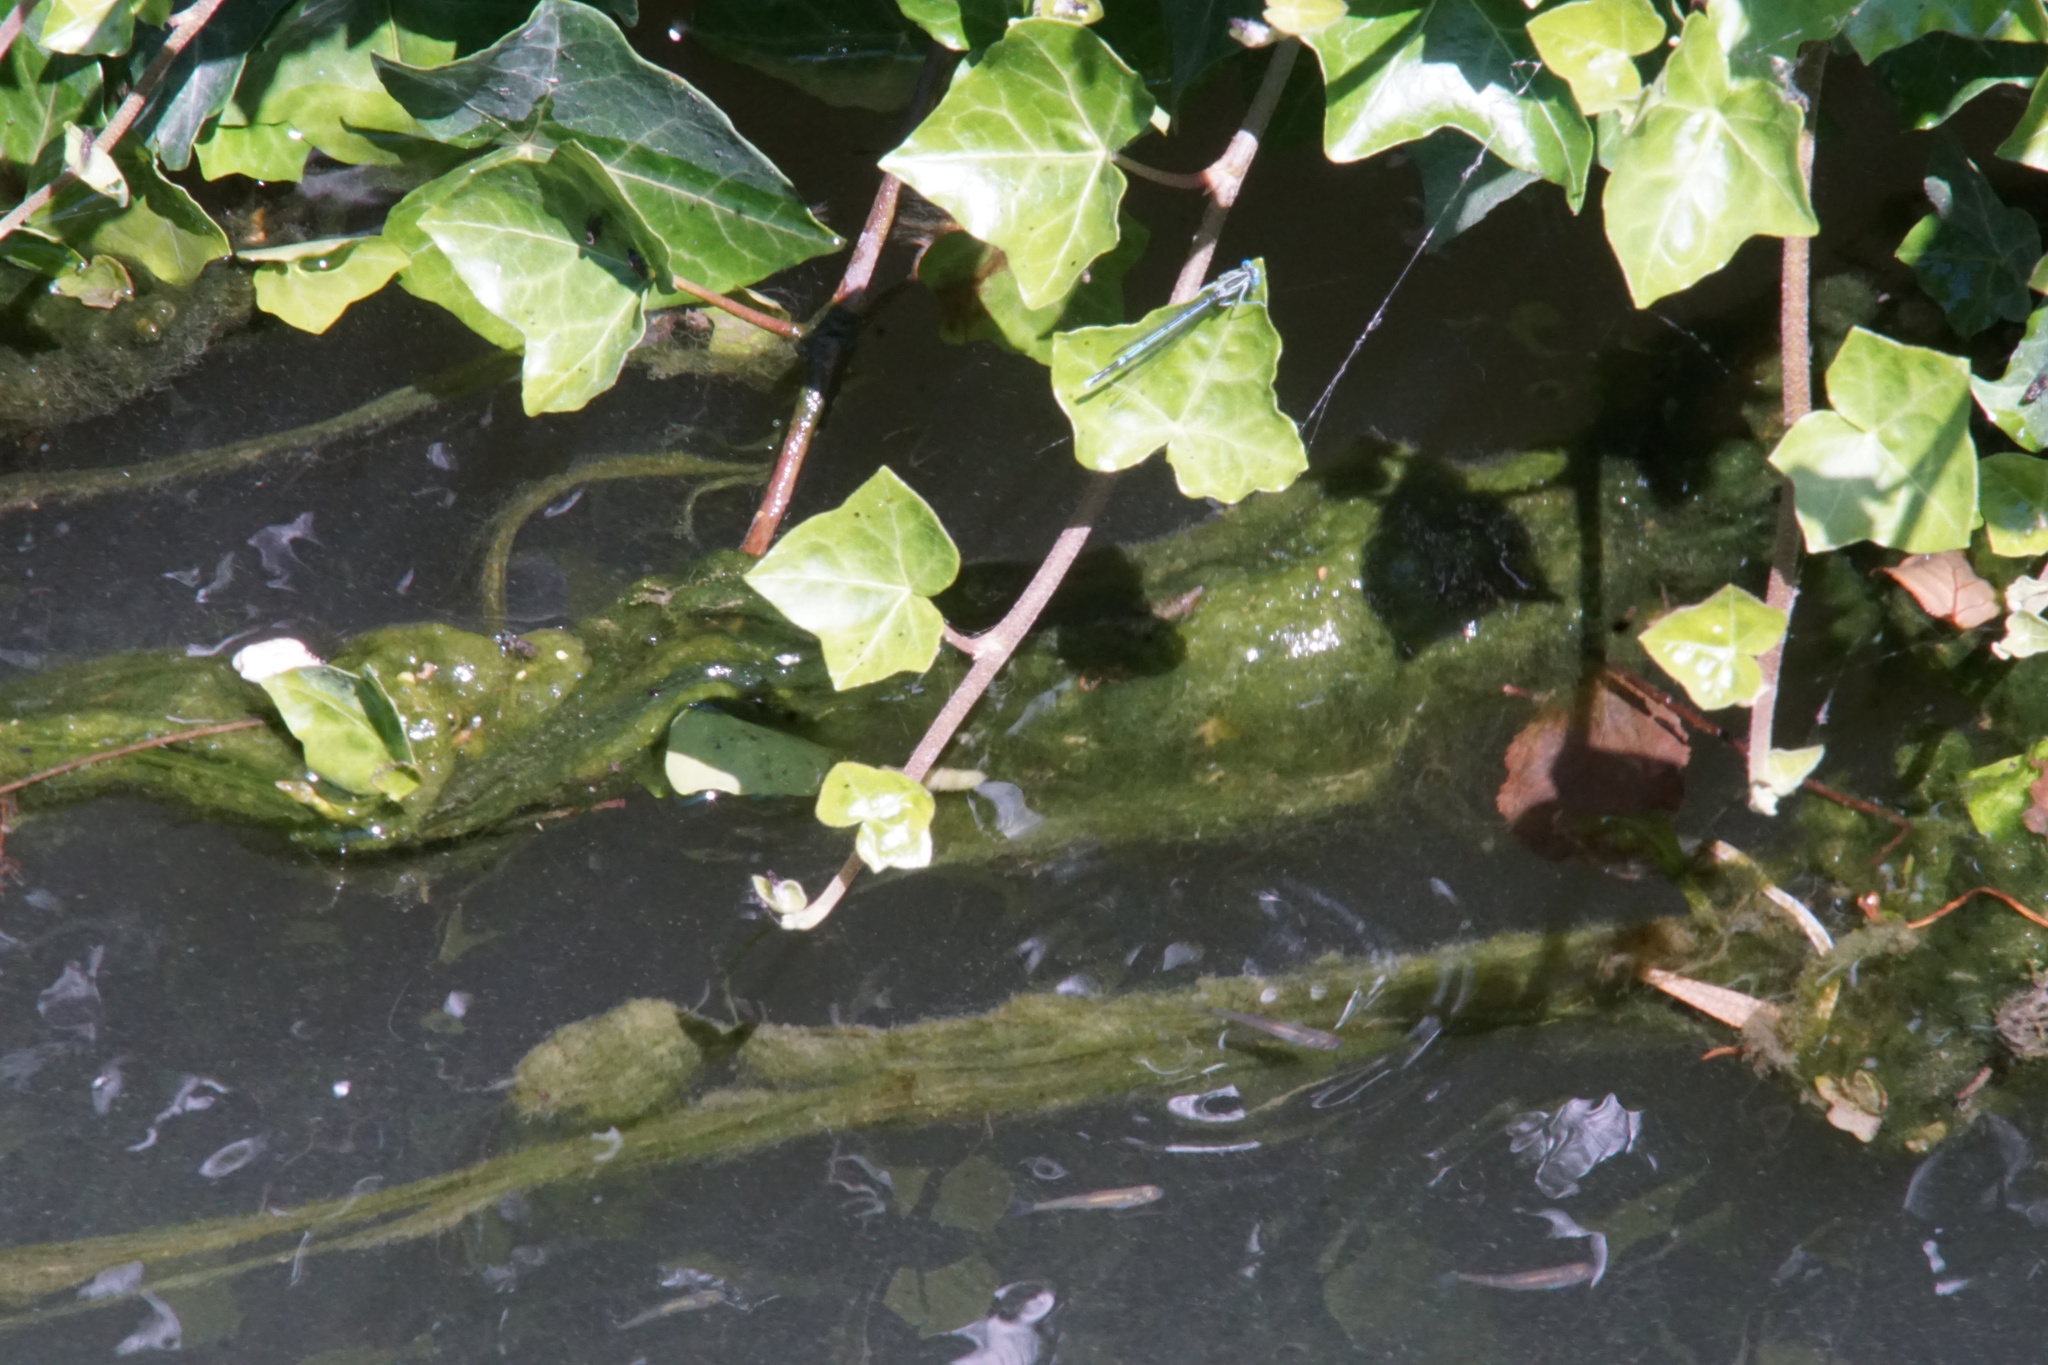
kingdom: Animalia
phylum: Arthropoda
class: Insecta
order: Odonata
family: Platycnemididae
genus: Platycnemis
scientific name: Platycnemis pennipes
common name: White-legged damselfly
